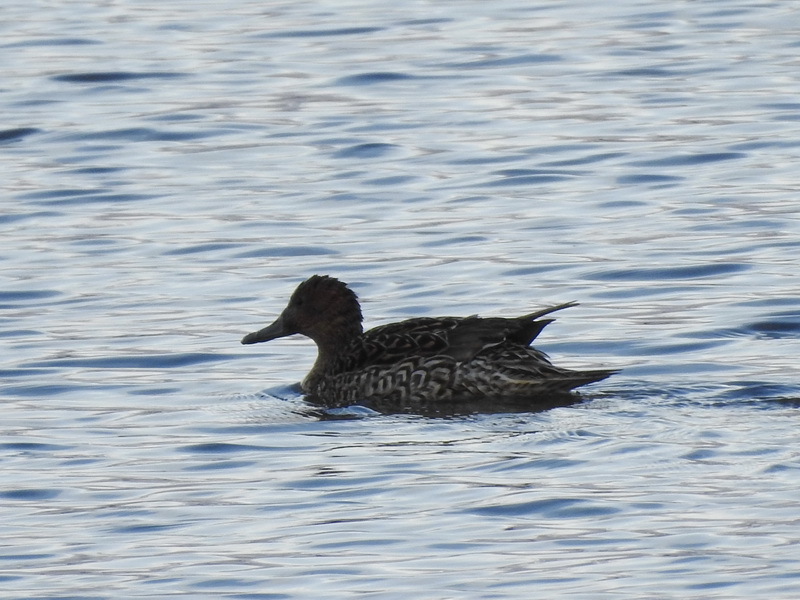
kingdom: Animalia
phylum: Chordata
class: Aves
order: Anseriformes
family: Anatidae
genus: Anas
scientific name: Anas acuta
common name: Northern pintail
